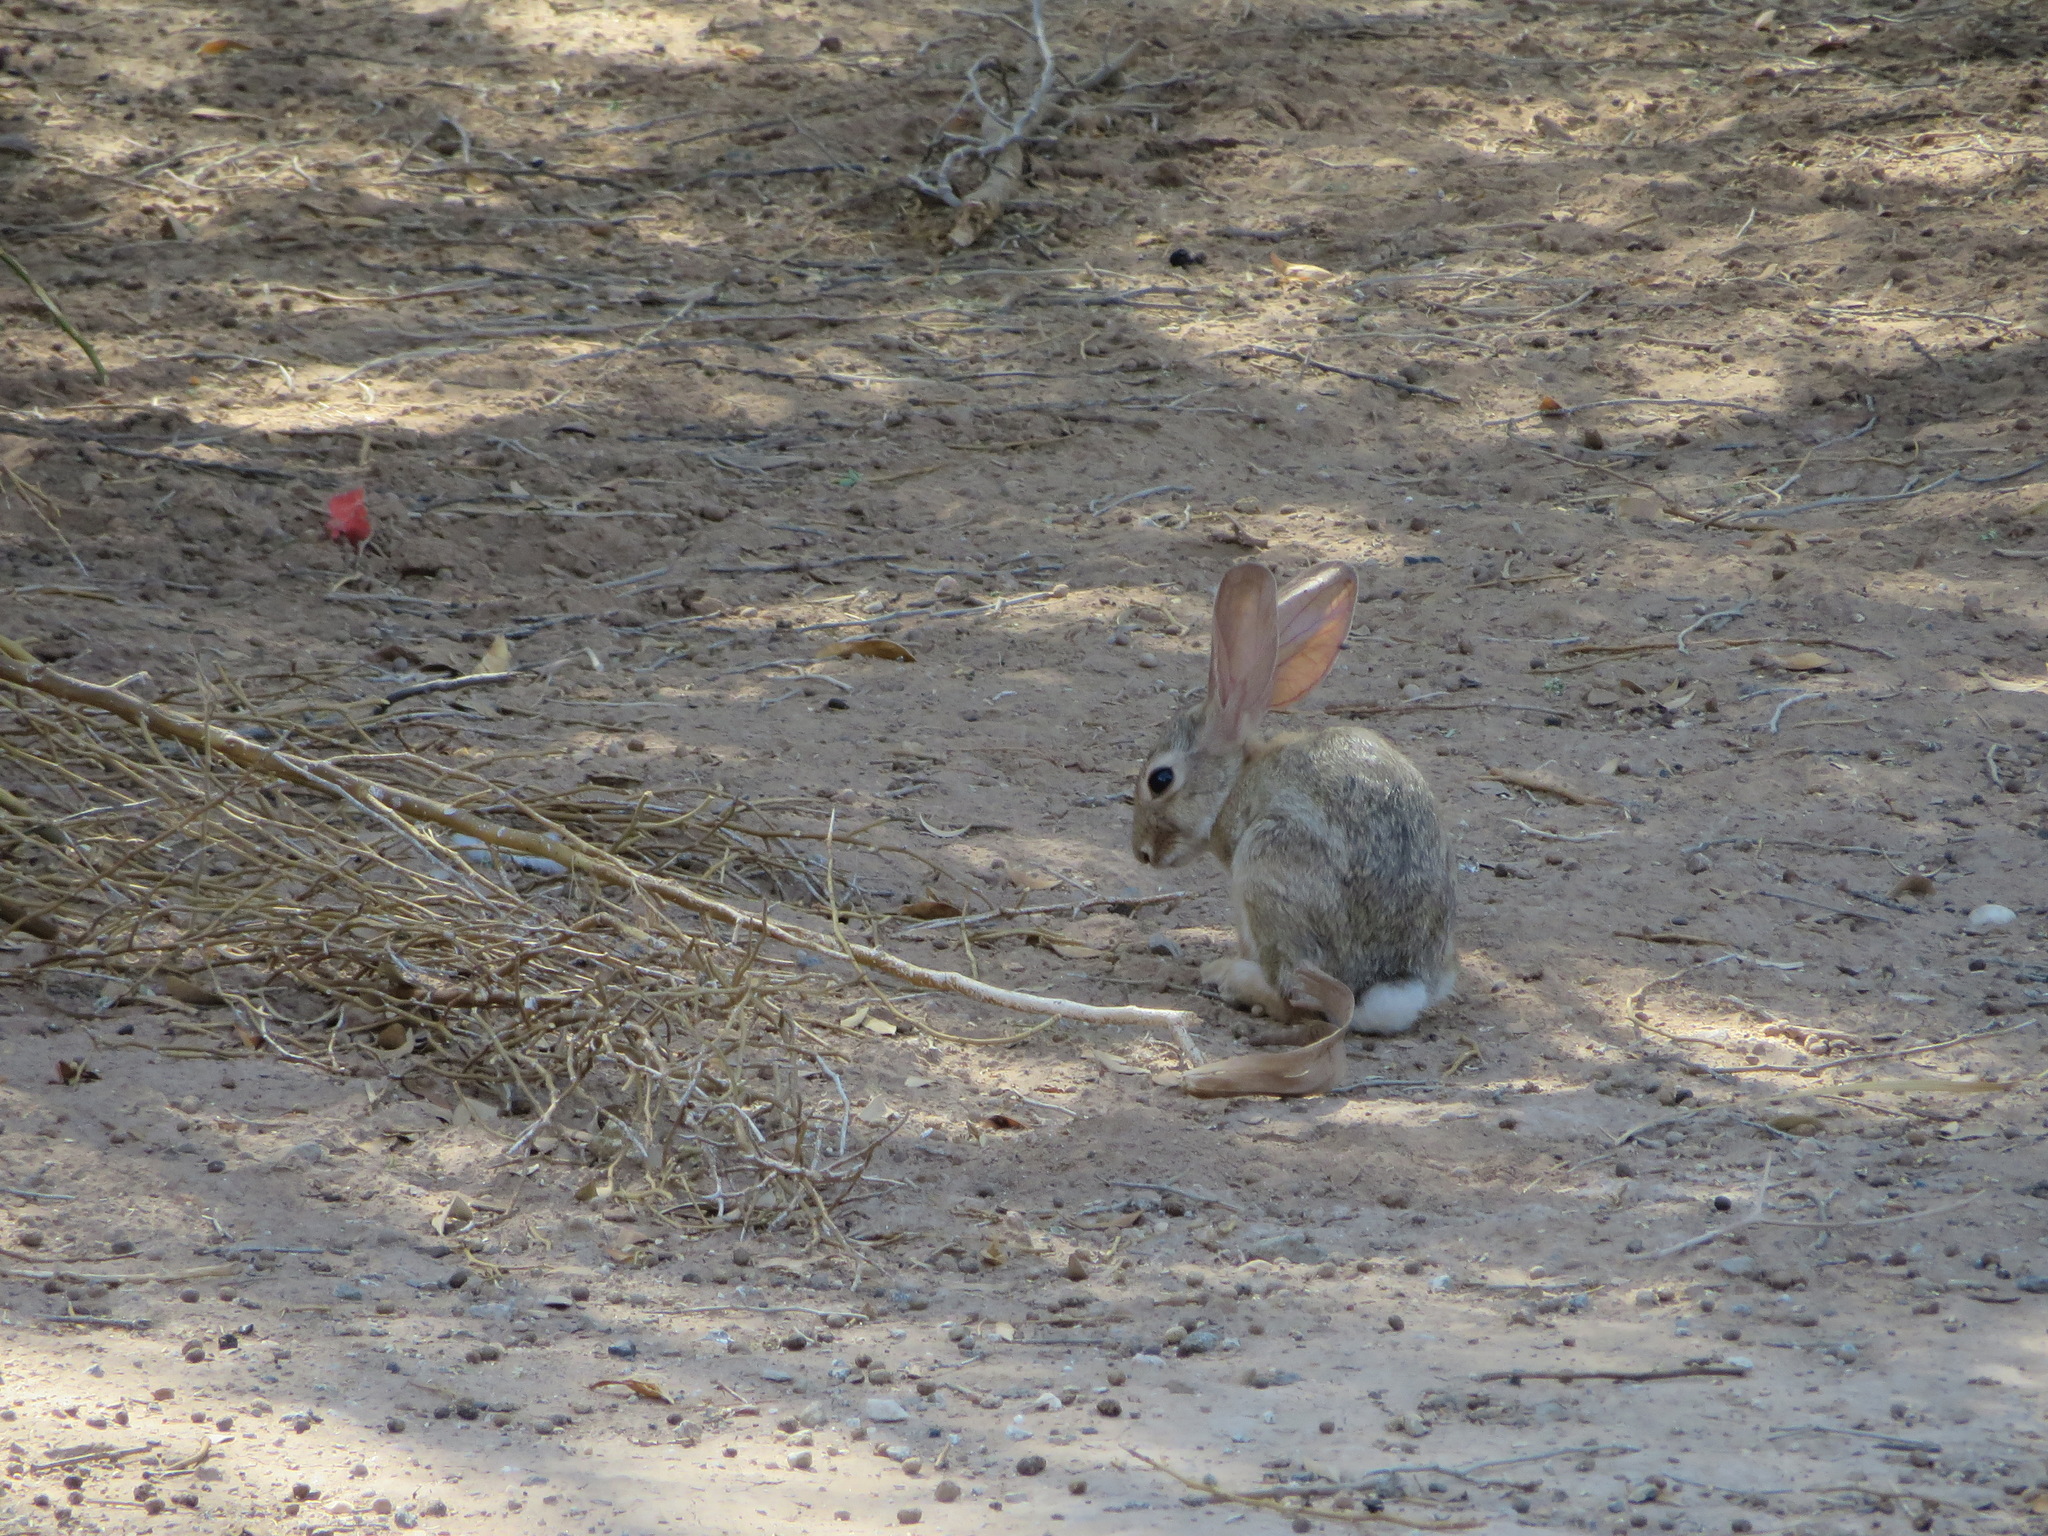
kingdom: Animalia
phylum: Chordata
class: Mammalia
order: Lagomorpha
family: Leporidae
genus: Sylvilagus
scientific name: Sylvilagus audubonii
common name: Desert cottontail
